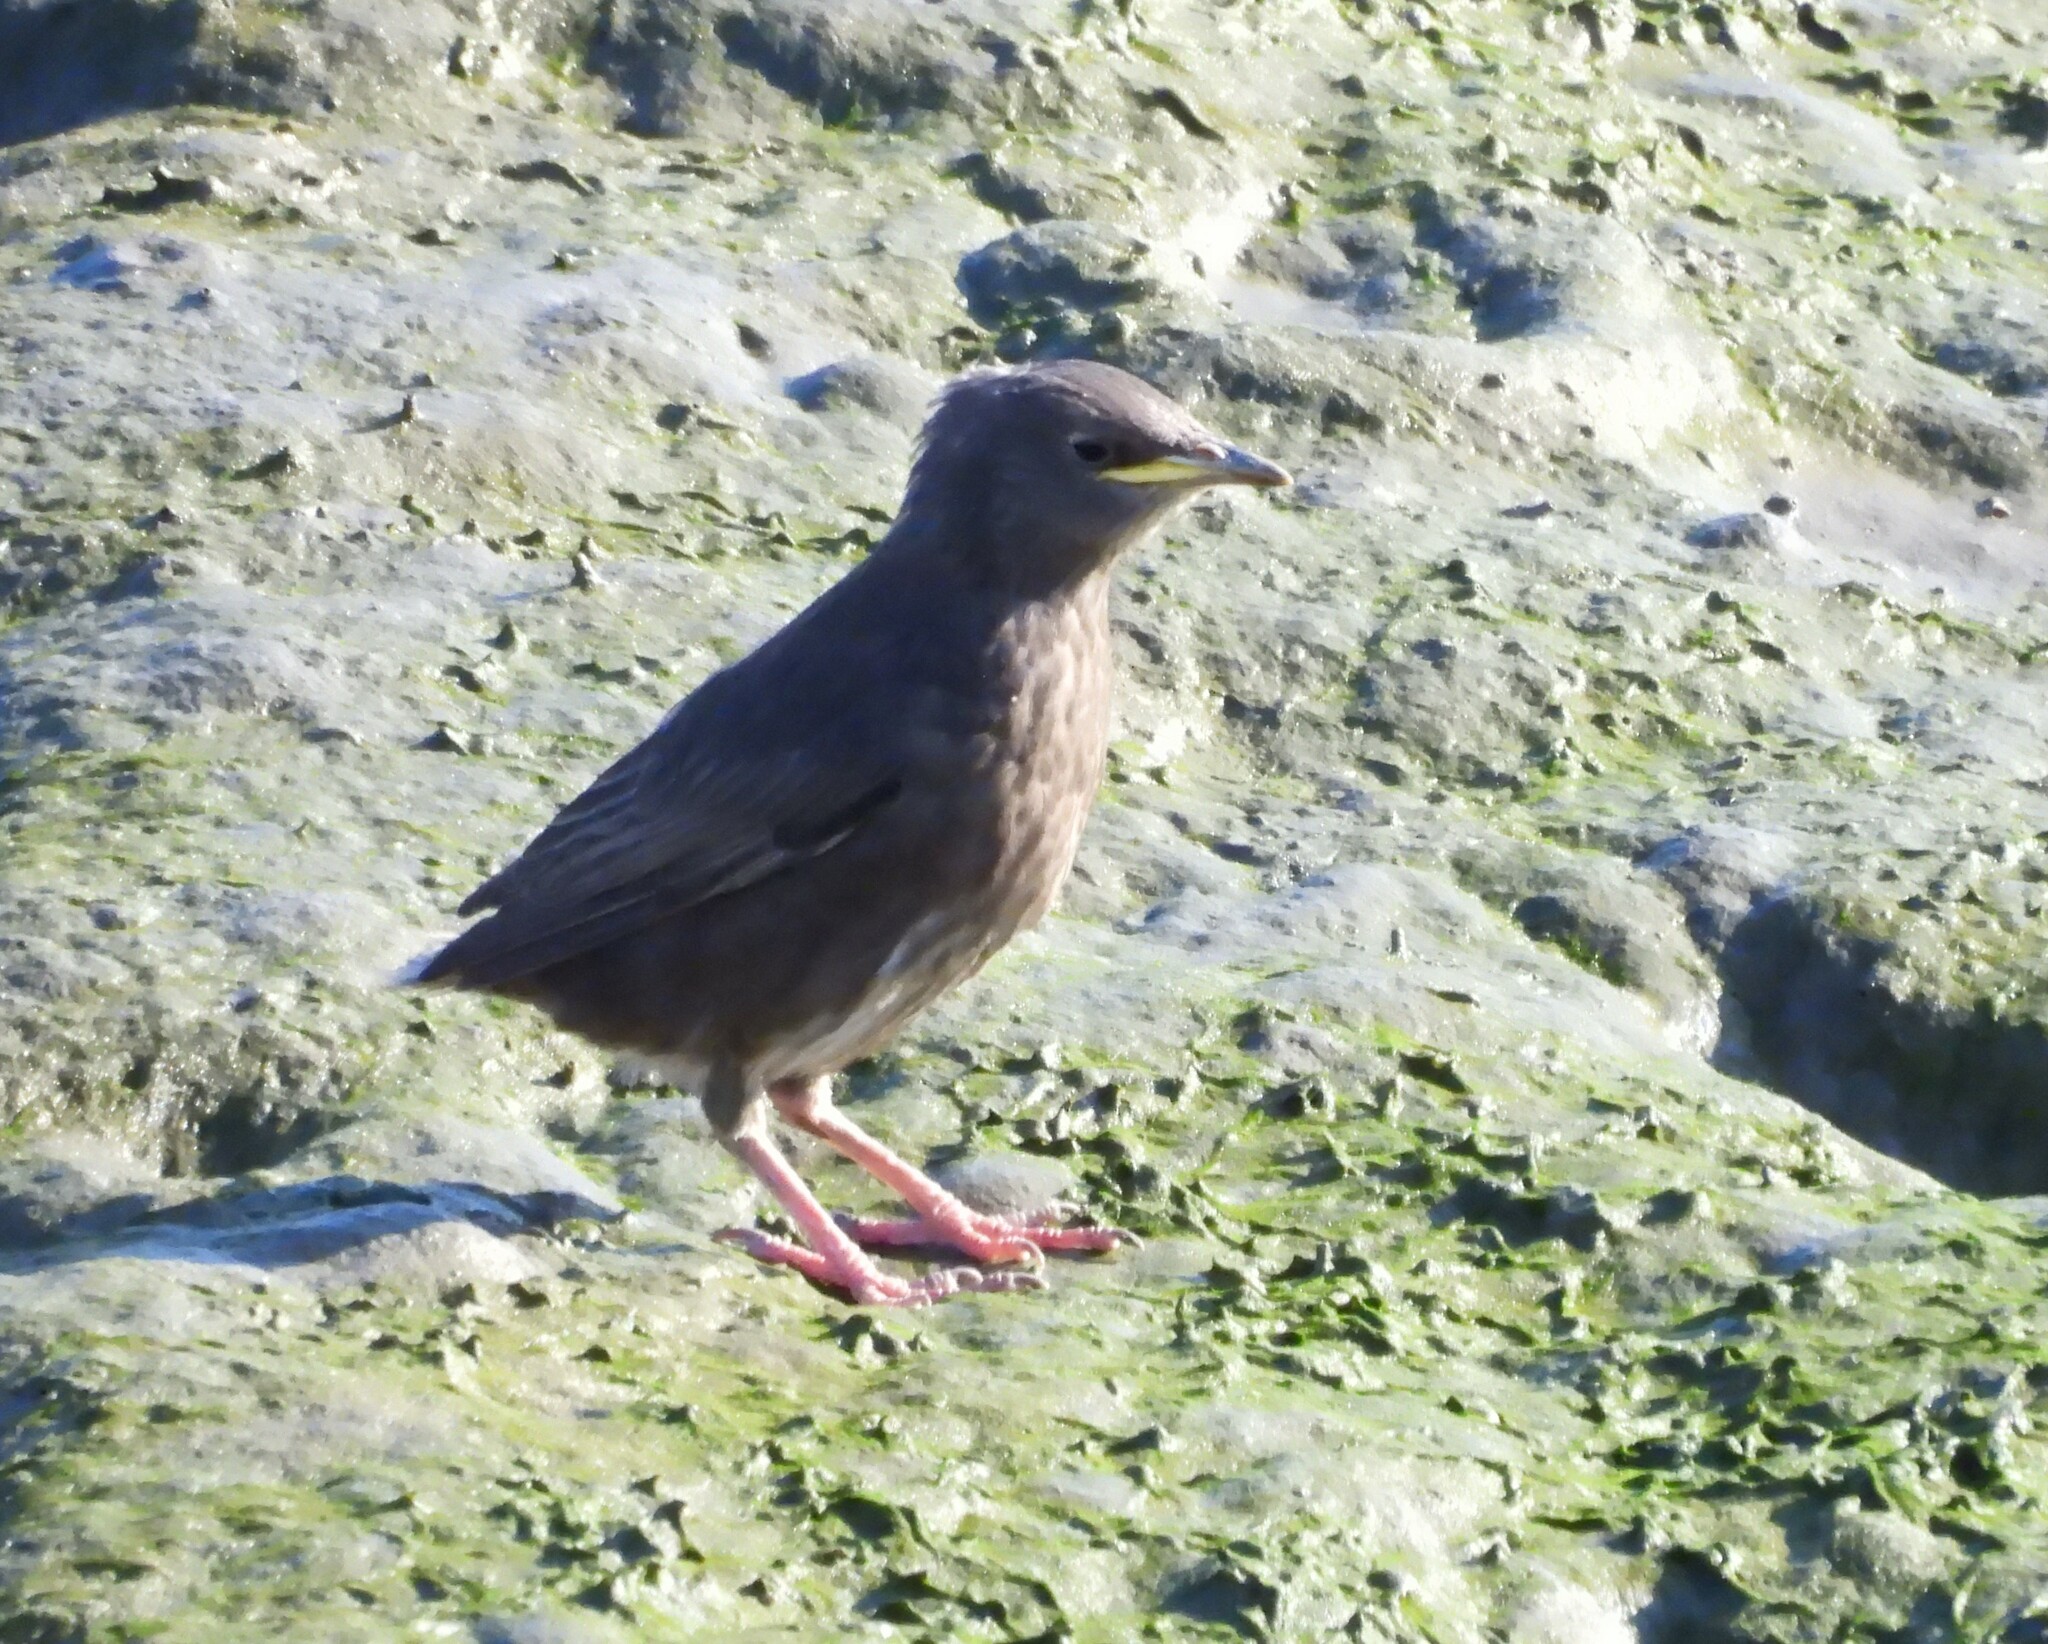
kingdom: Animalia
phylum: Chordata
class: Aves
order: Passeriformes
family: Sturnidae
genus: Sturnus
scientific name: Sturnus vulgaris
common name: Common starling
